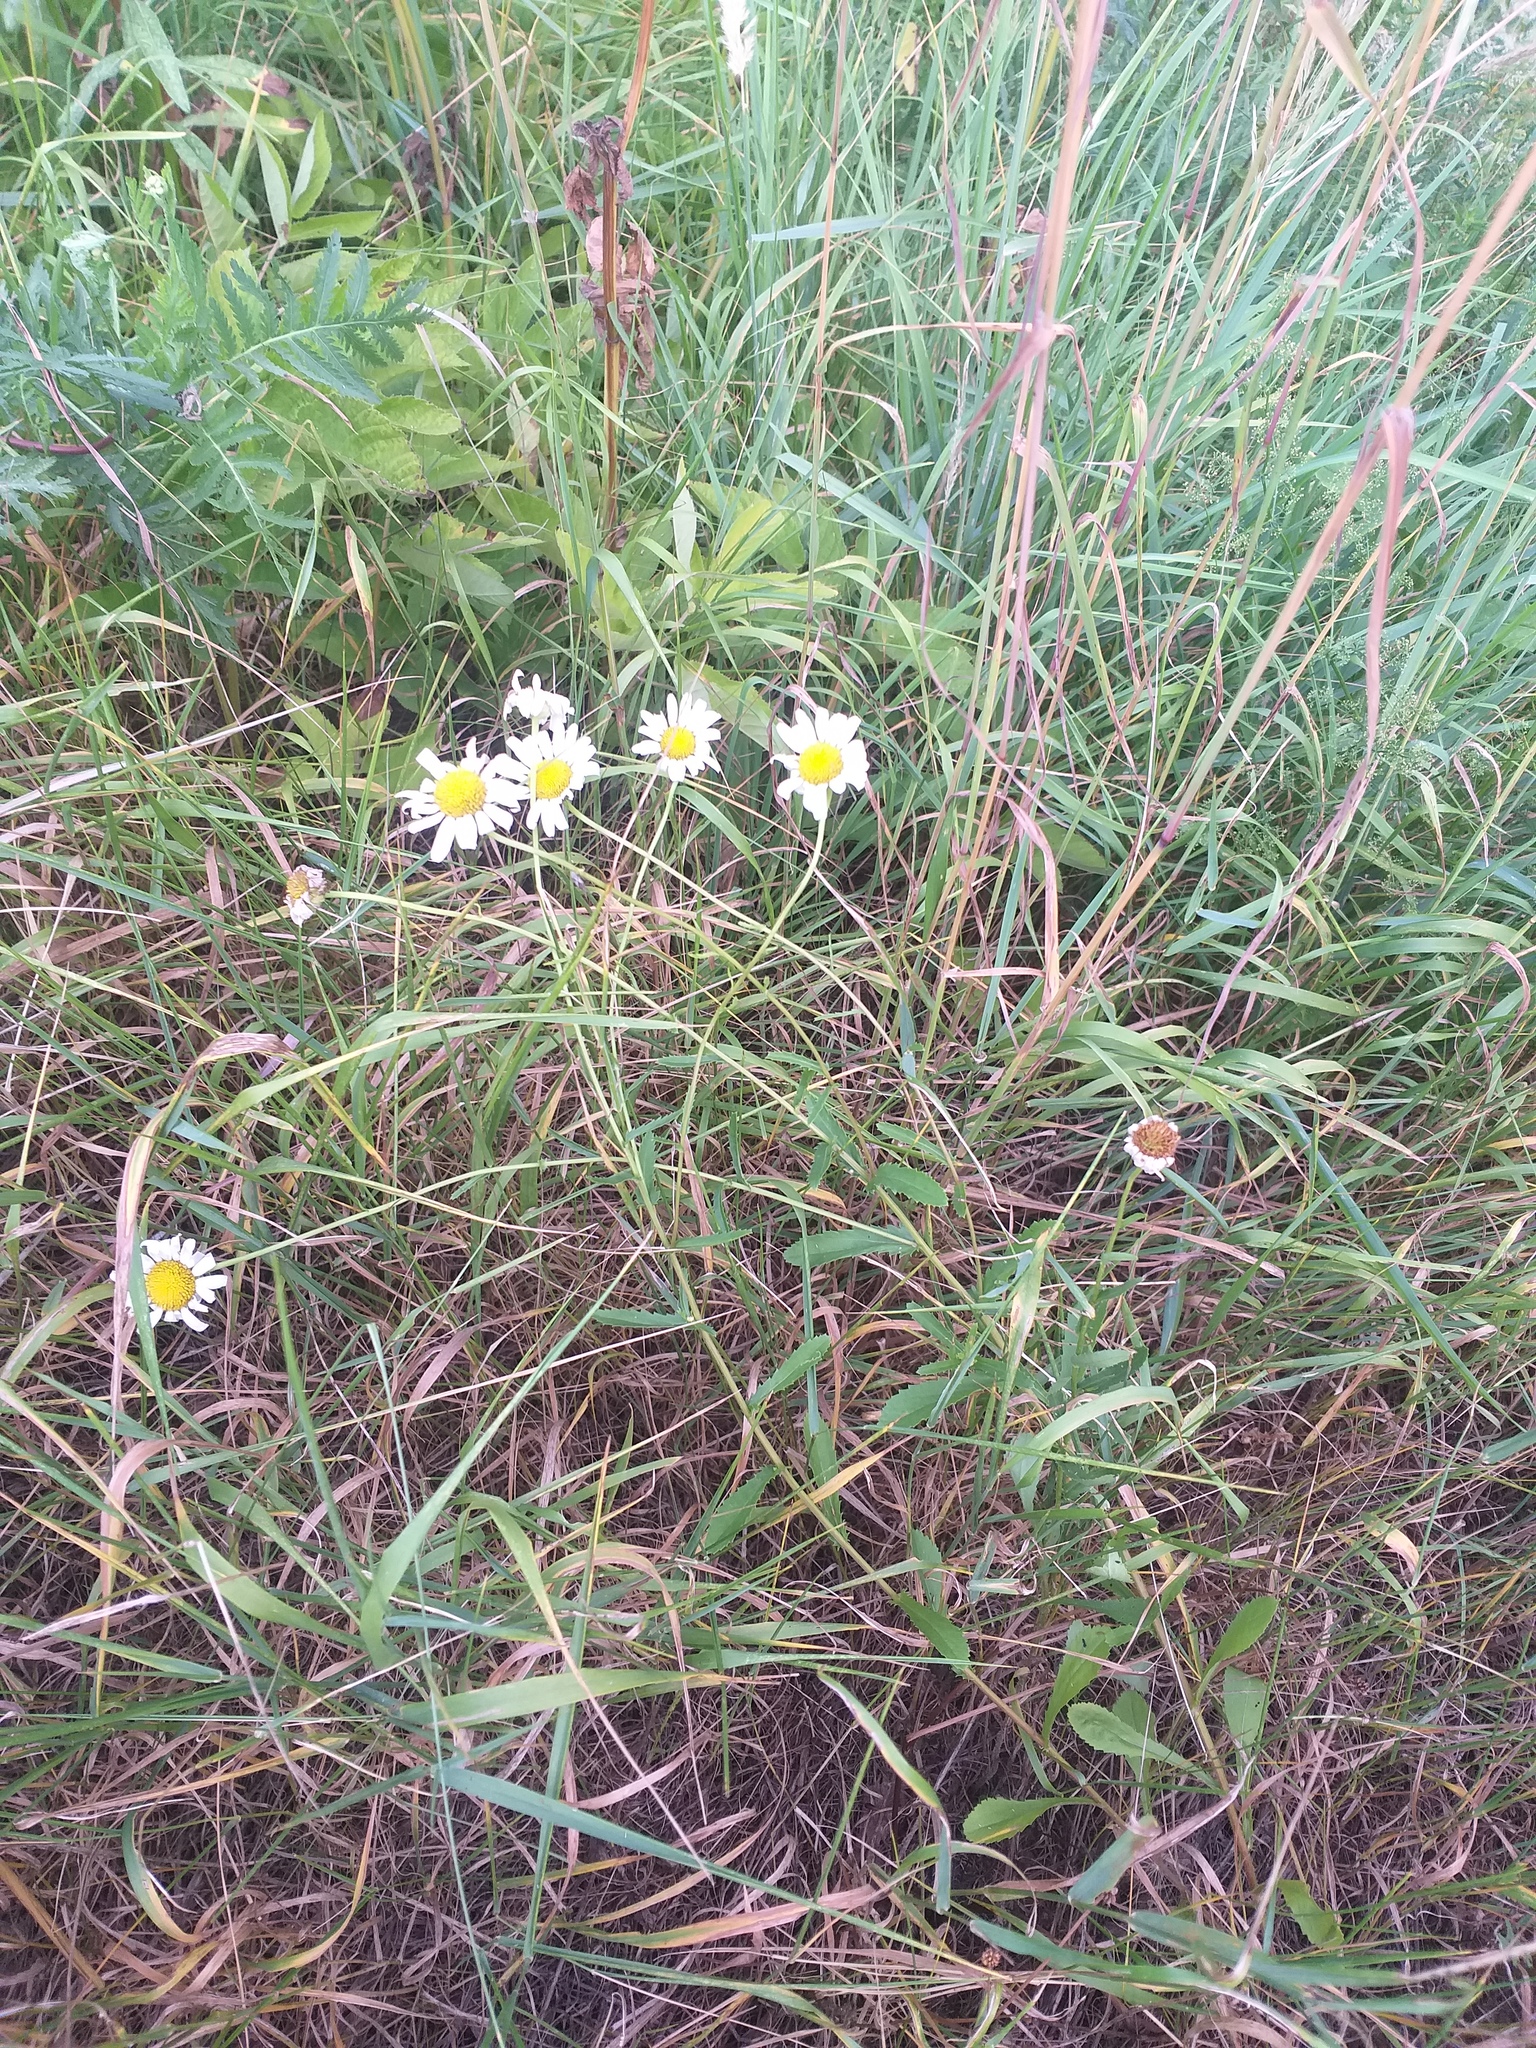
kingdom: Plantae
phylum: Tracheophyta
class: Magnoliopsida
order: Asterales
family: Asteraceae
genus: Leucanthemum
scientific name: Leucanthemum vulgare
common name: Oxeye daisy
